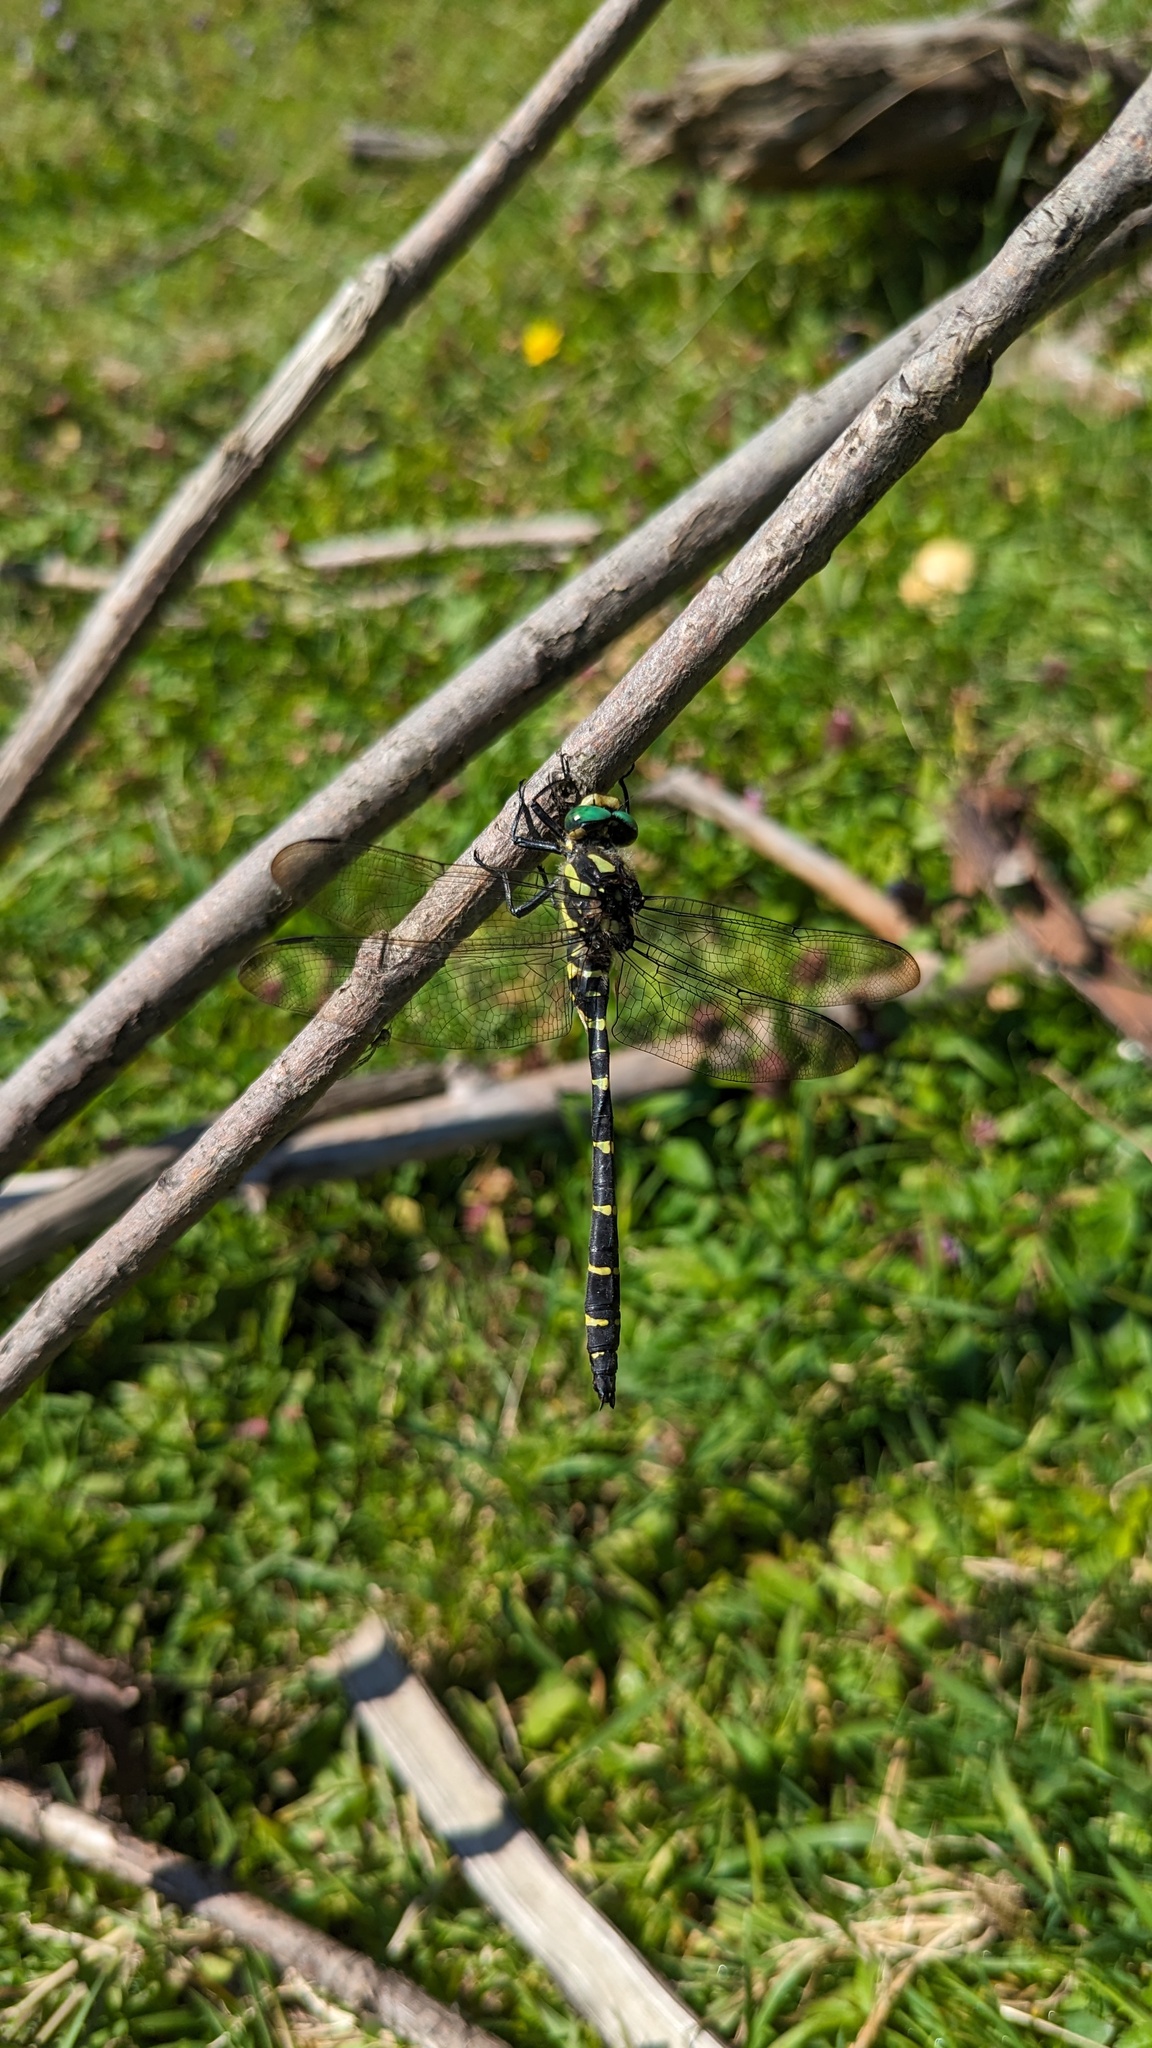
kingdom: Animalia
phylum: Arthropoda
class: Insecta
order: Odonata
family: Cordulegastridae
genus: Cordulegaster
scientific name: Cordulegaster bidentata
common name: Sombre goldenring
